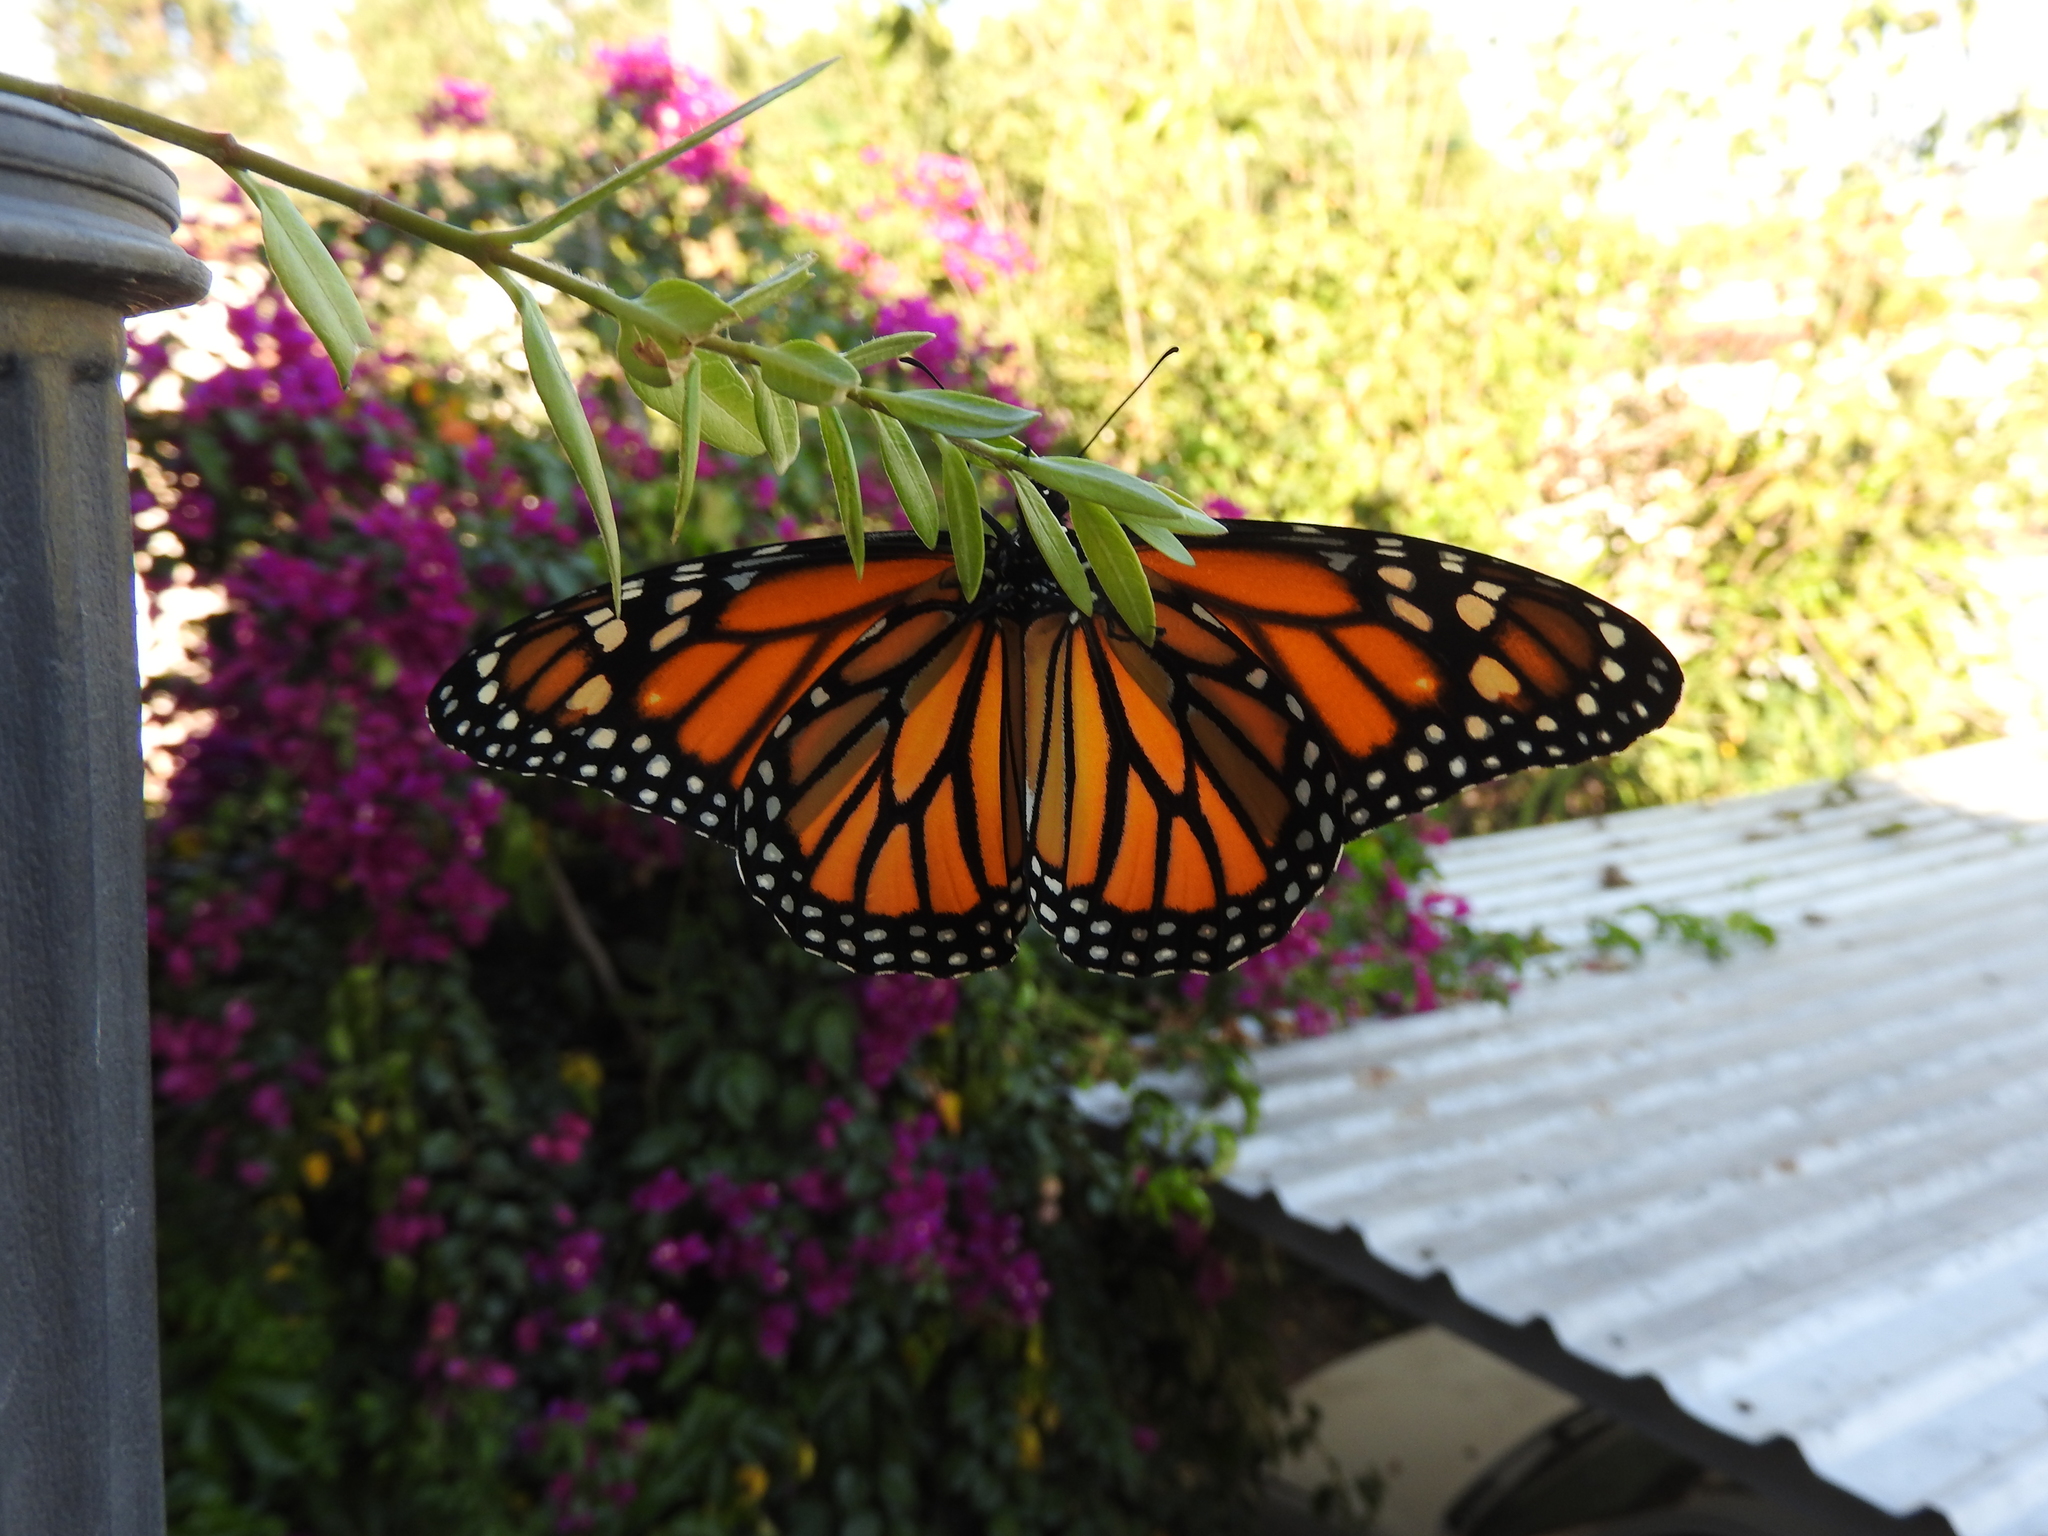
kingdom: Animalia
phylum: Arthropoda
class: Insecta
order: Lepidoptera
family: Nymphalidae
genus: Danaus
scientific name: Danaus plexippus
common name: Monarch
